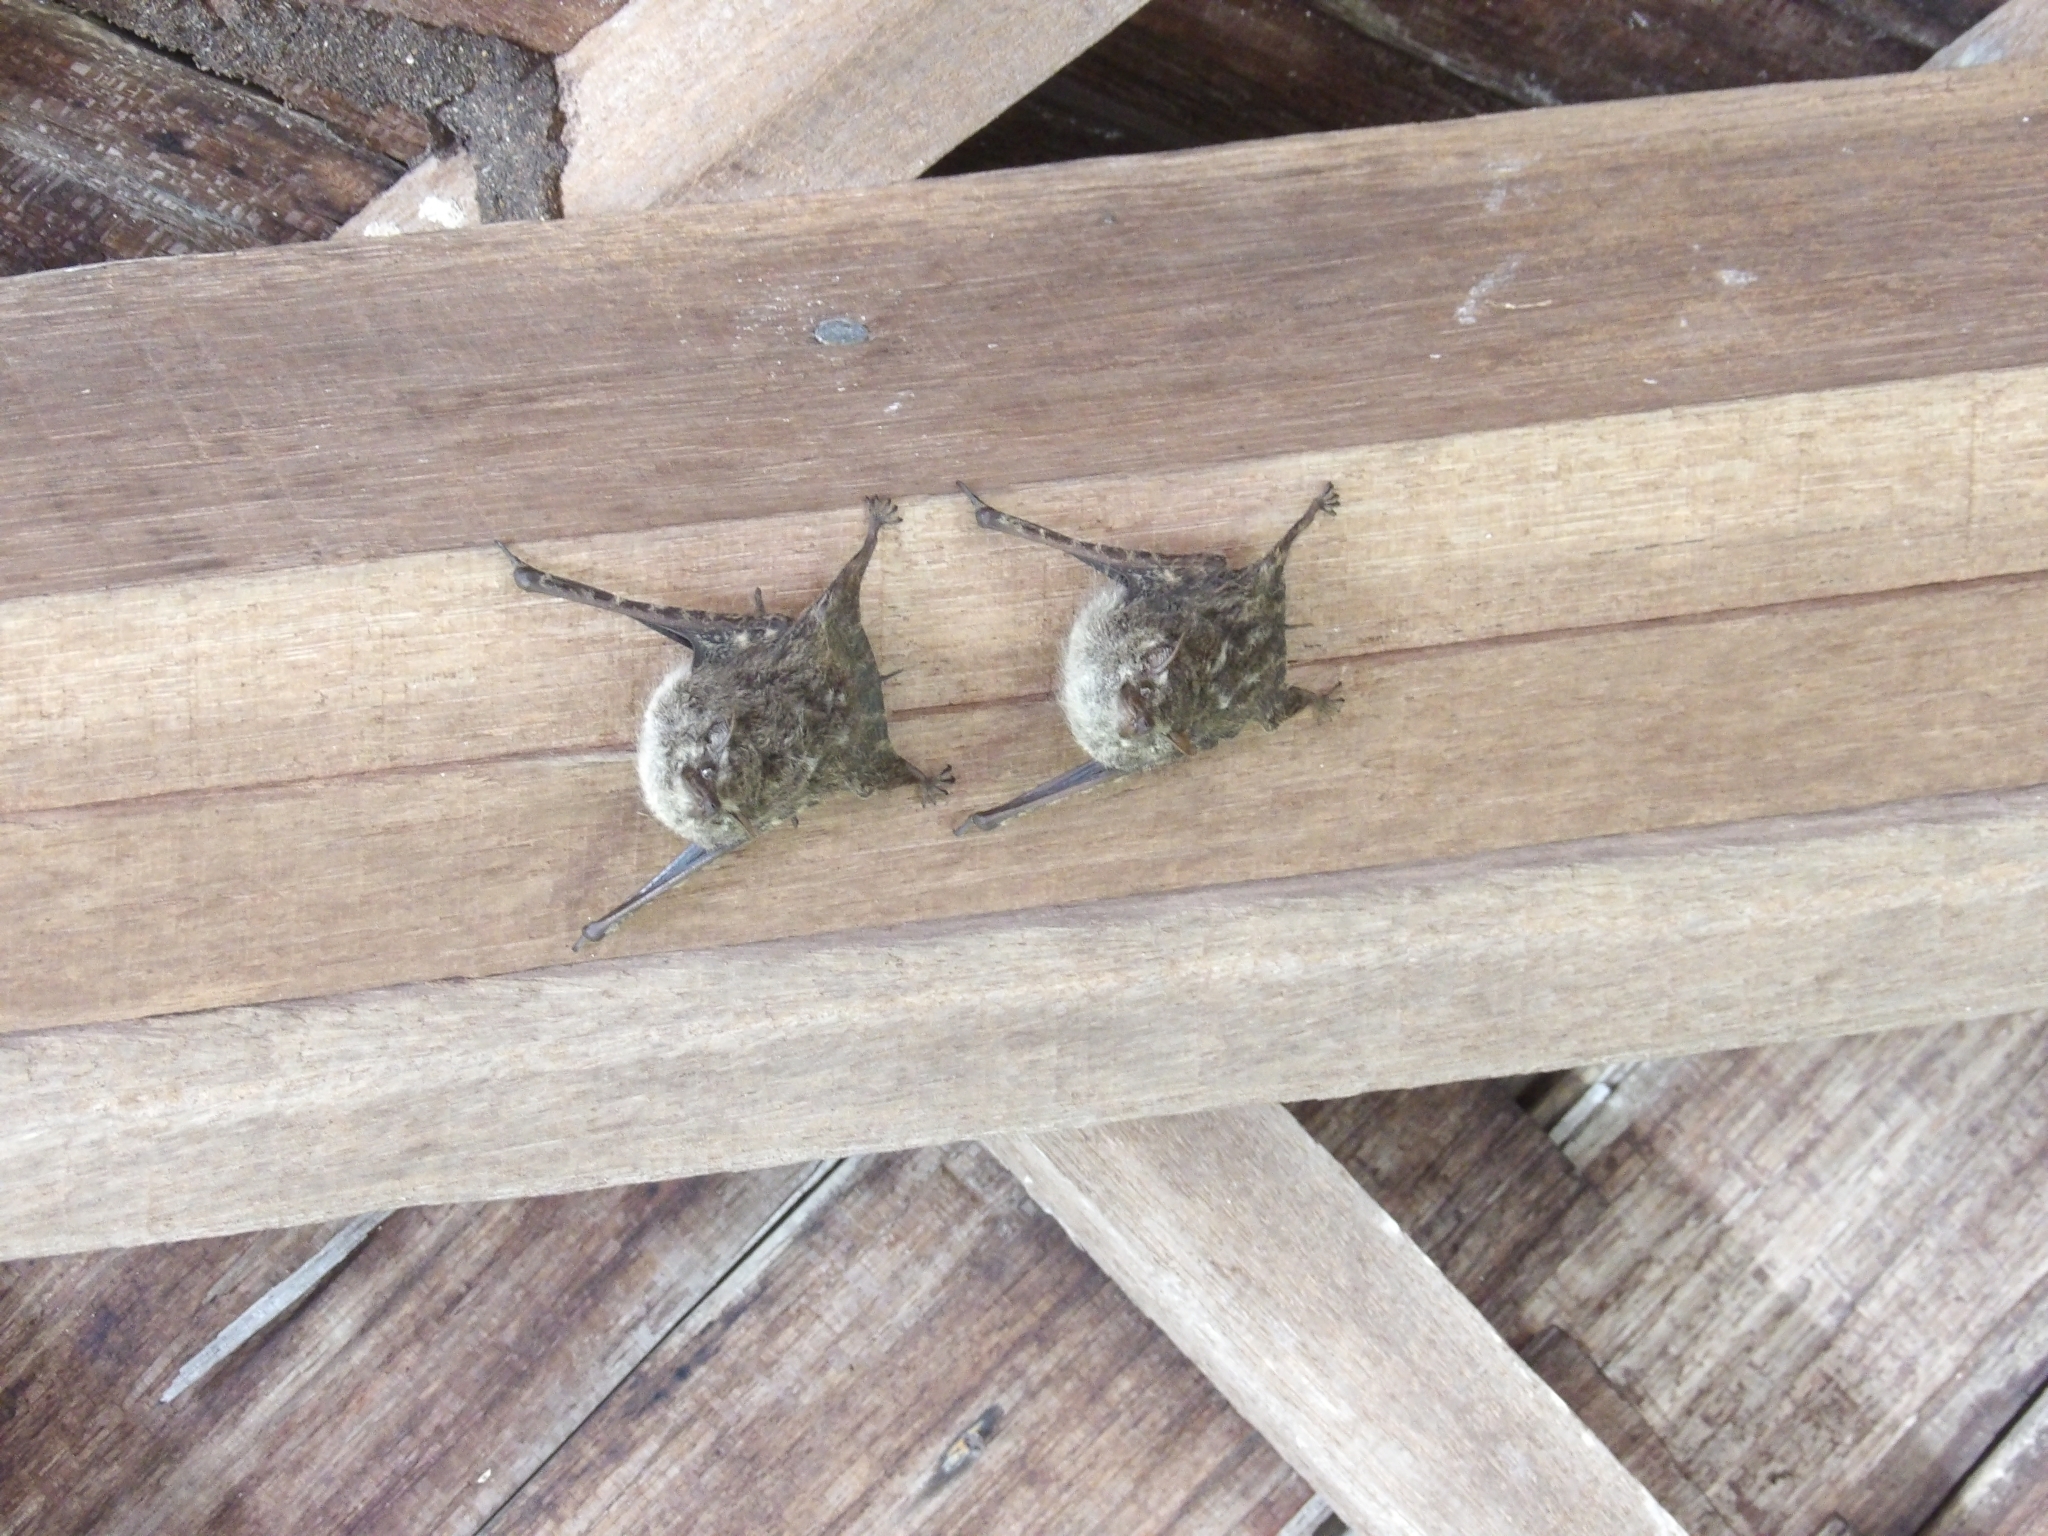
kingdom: Animalia
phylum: Chordata
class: Mammalia
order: Chiroptera
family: Emballonuridae
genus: Rhynchonycteris
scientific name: Rhynchonycteris naso
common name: Proboscis bat
